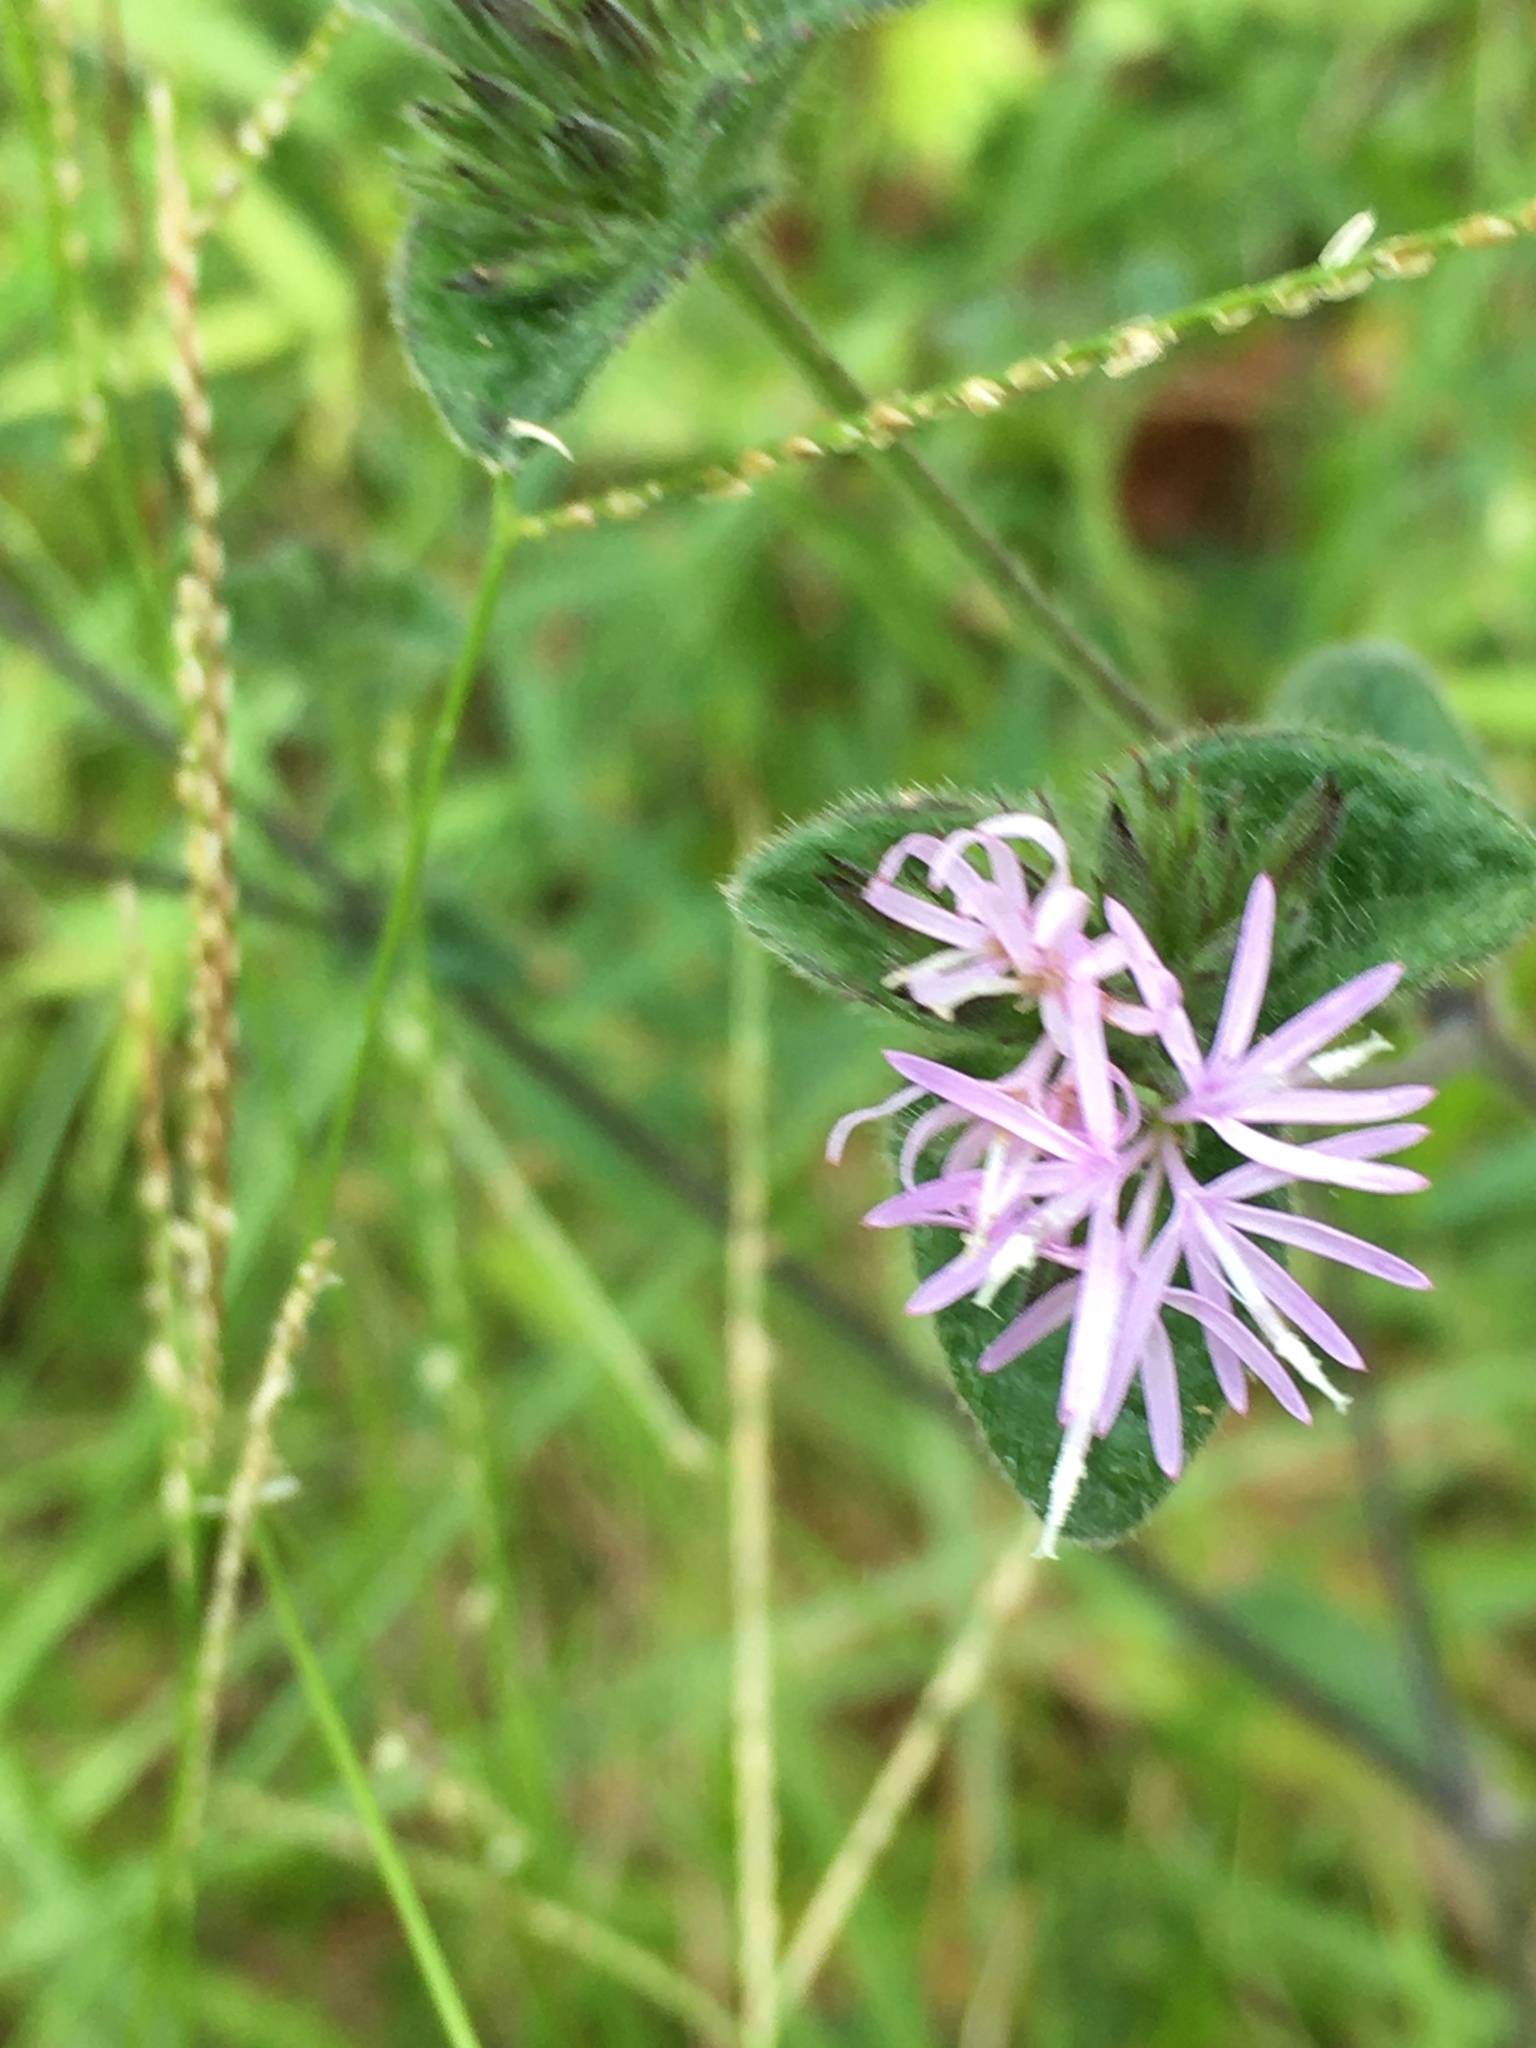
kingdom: Plantae
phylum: Tracheophyta
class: Magnoliopsida
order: Asterales
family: Asteraceae
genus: Elephantopus
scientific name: Elephantopus tomentosus
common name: Tobacco-weed
